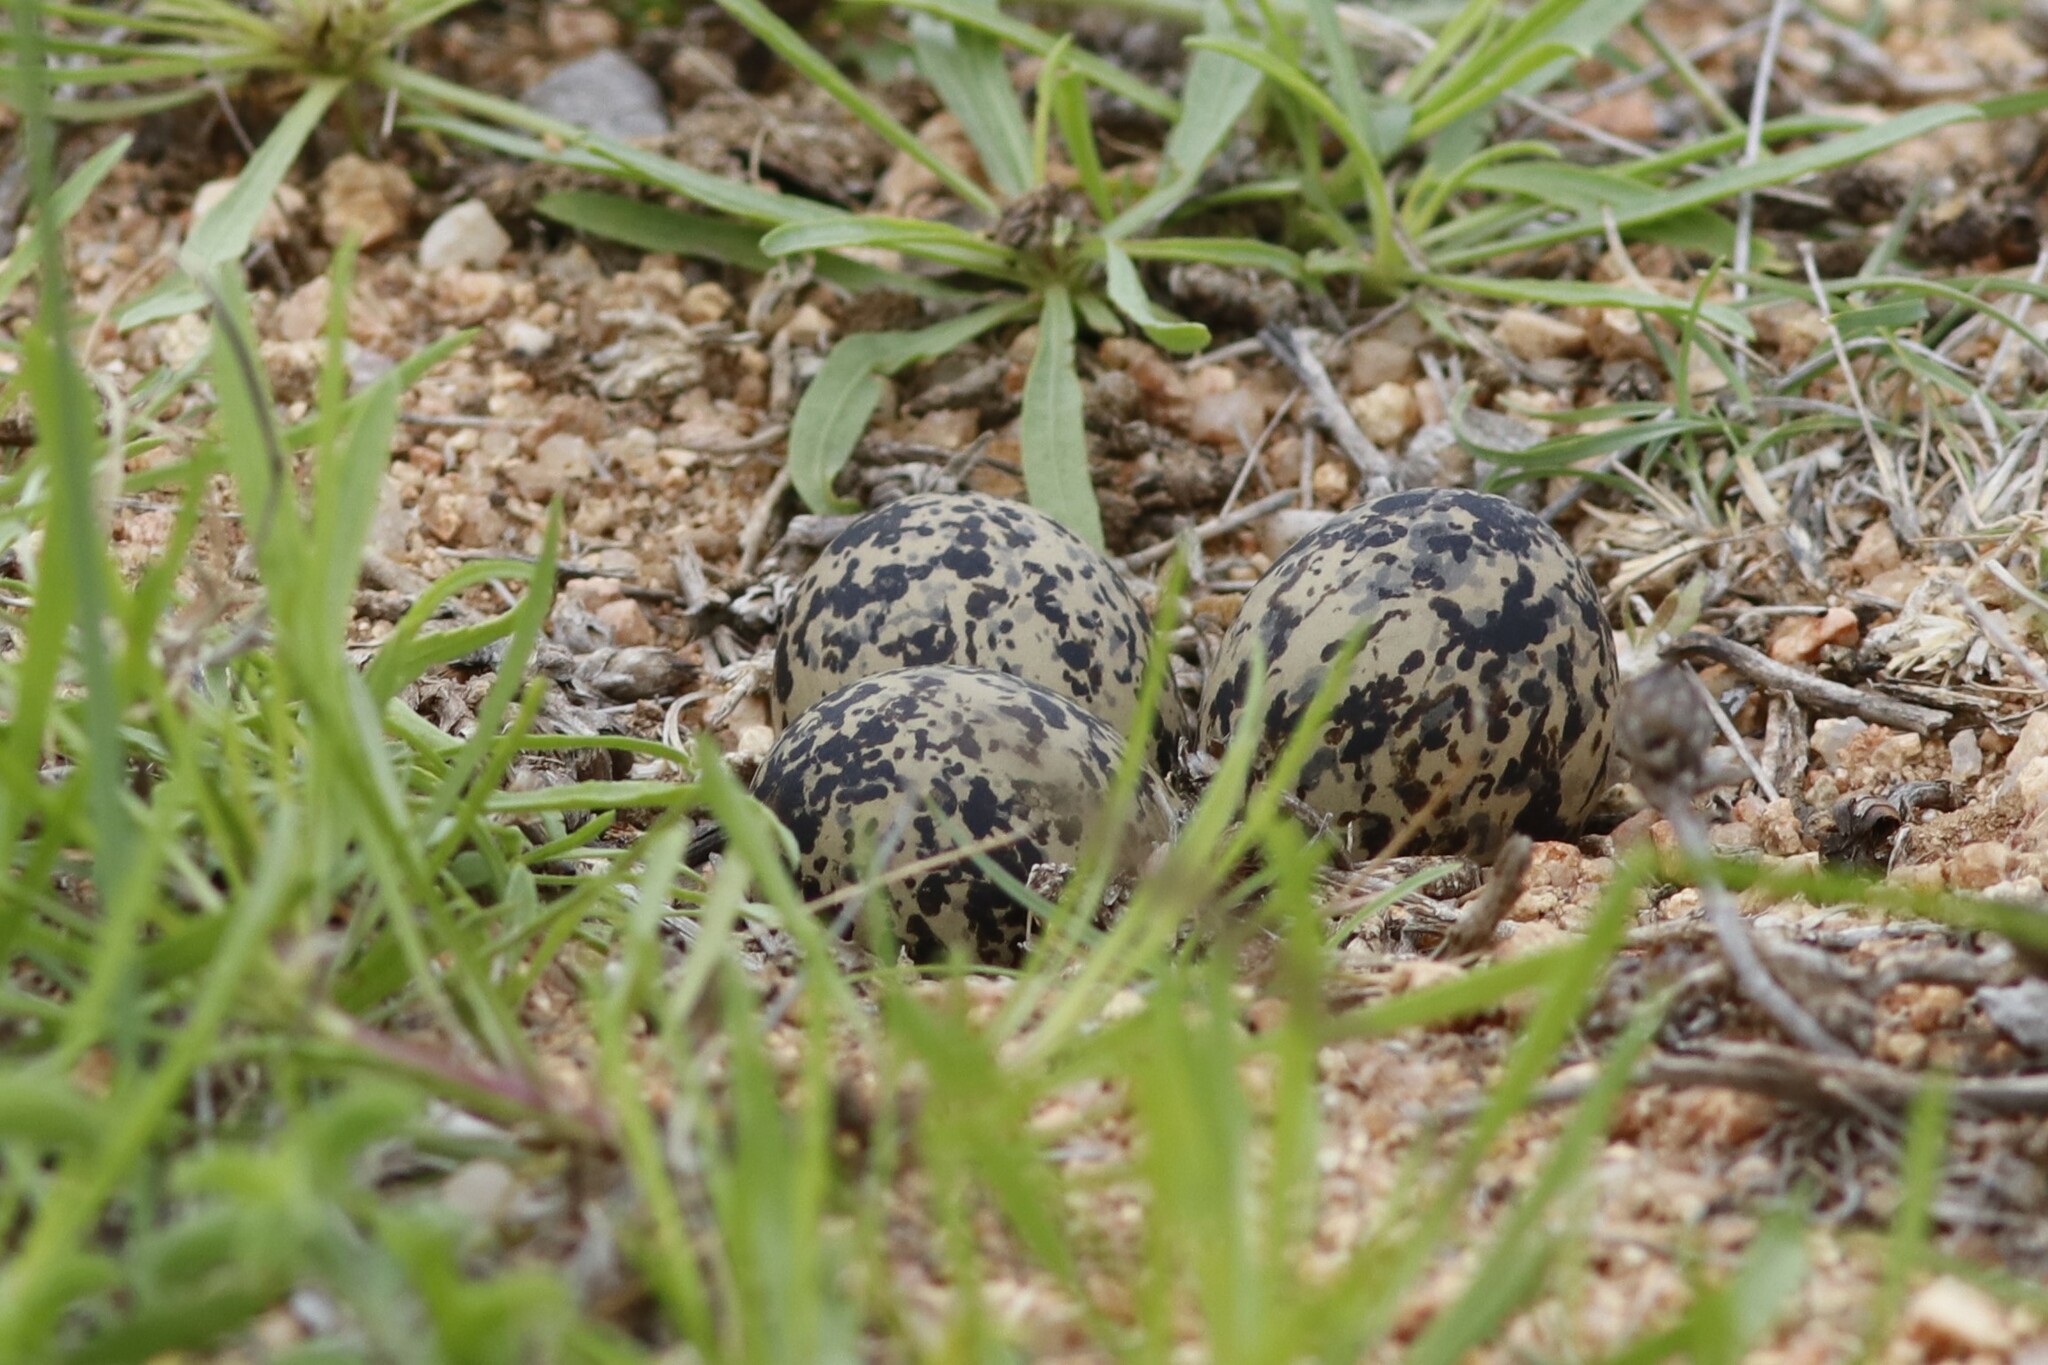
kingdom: Animalia
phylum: Chordata
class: Aves
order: Charadriiformes
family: Charadriidae
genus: Vanellus
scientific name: Vanellus armatus
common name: Blacksmith lapwing
